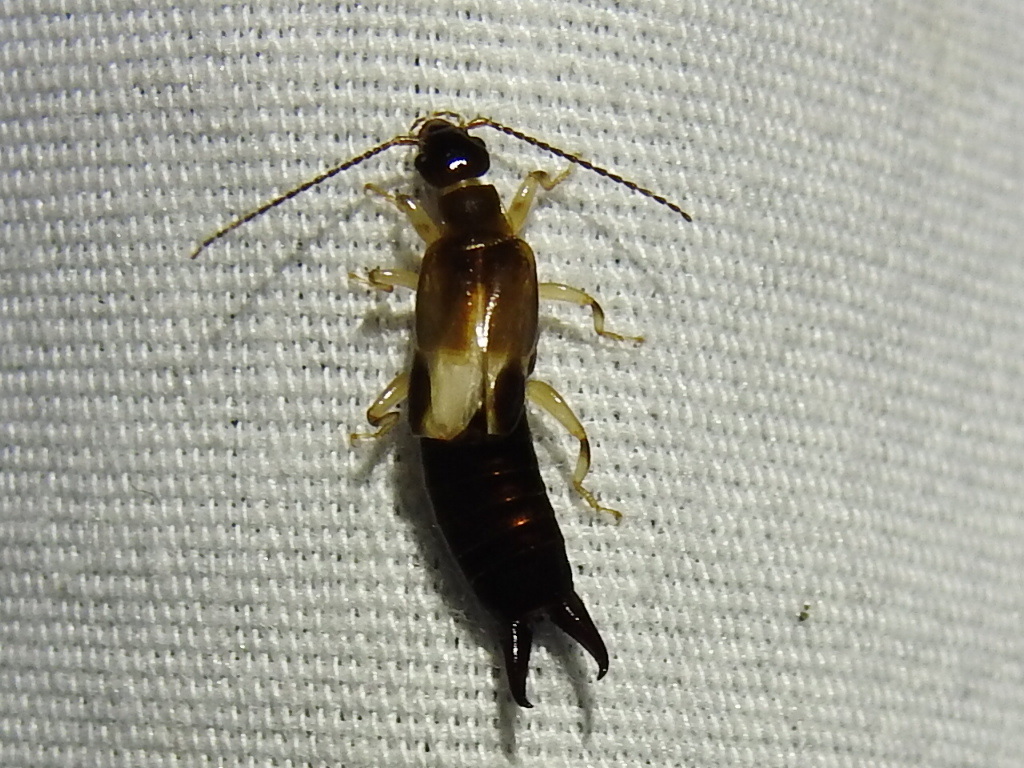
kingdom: Animalia
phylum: Arthropoda
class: Insecta
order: Dermaptera
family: Anisolabididae
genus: Euborellia
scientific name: Euborellia cincticollis
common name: African earwig
